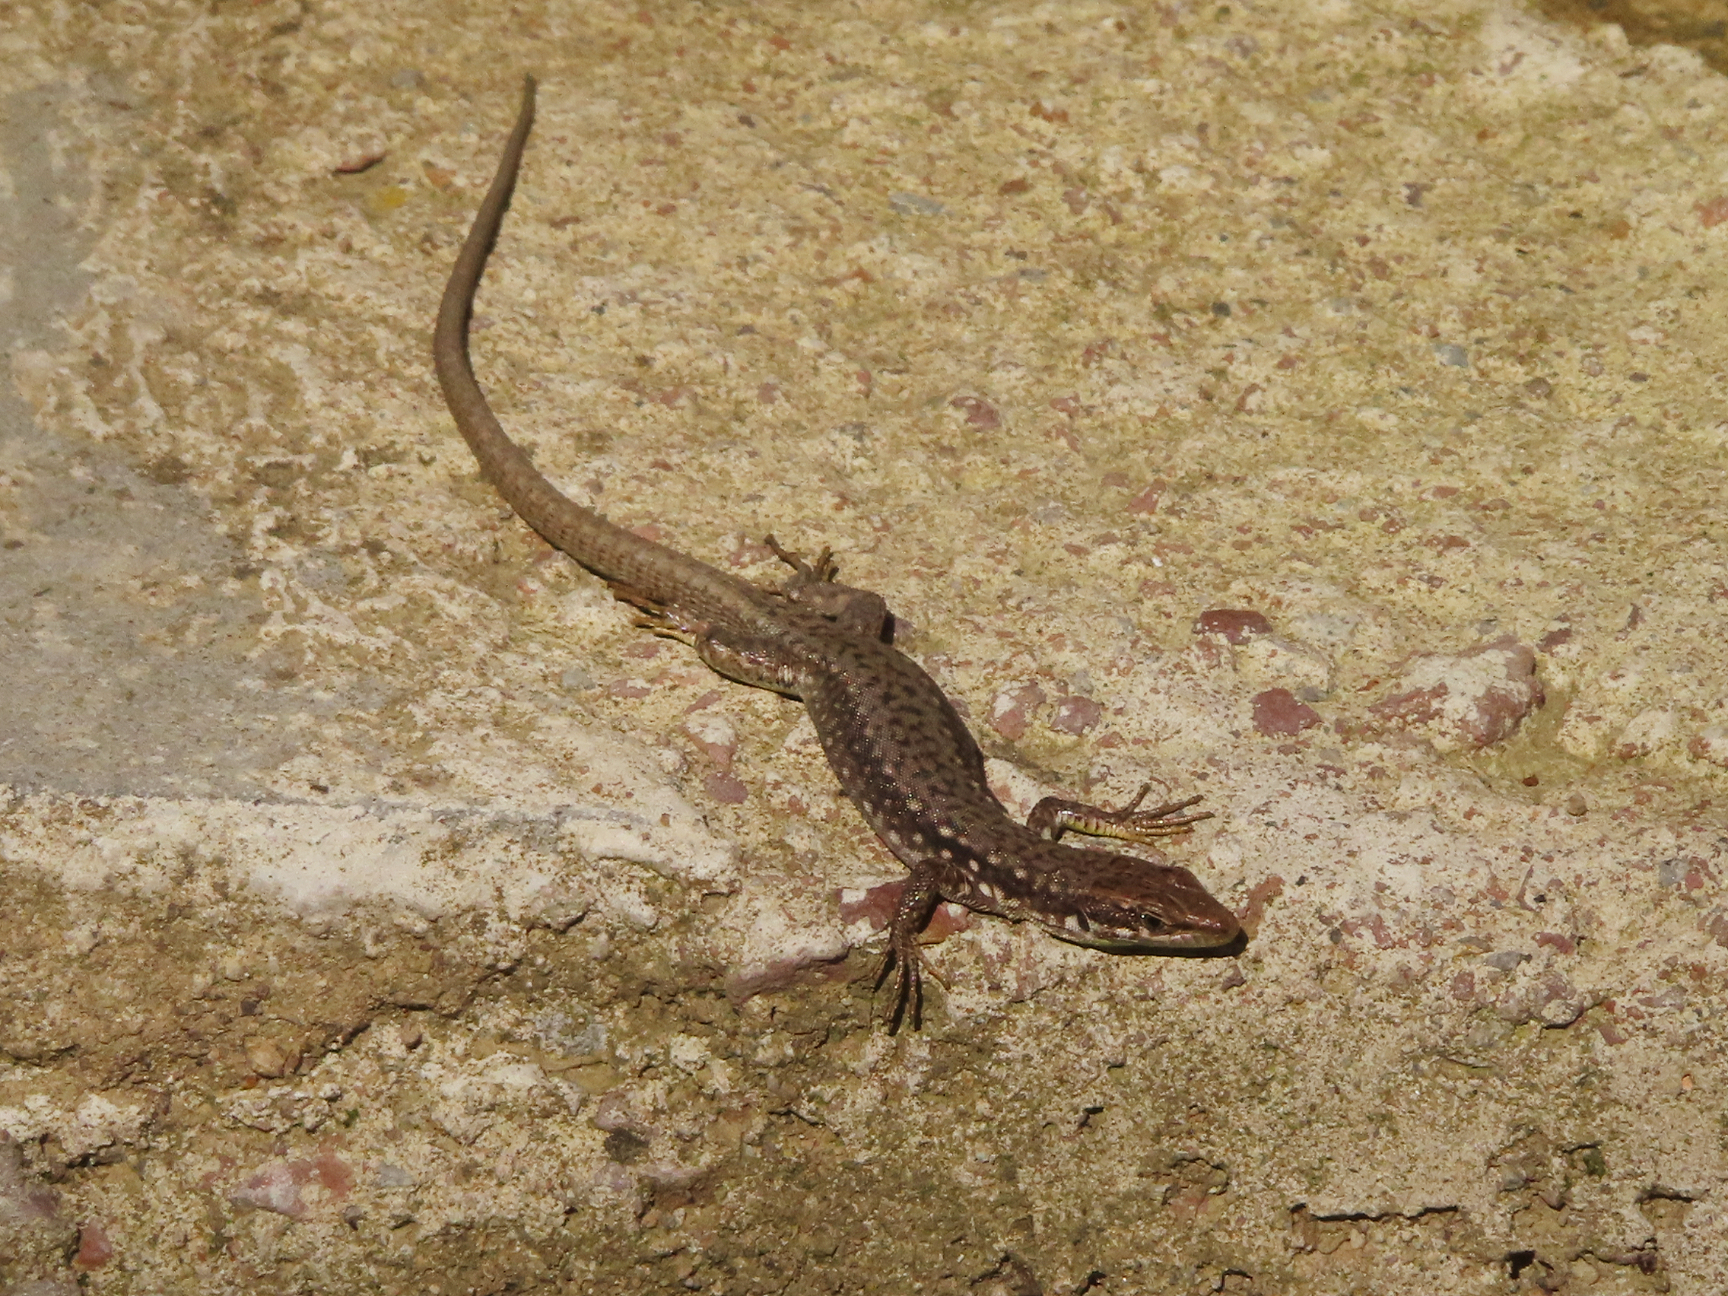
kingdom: Animalia
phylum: Chordata
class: Squamata
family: Lacertidae
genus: Darevskia
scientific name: Darevskia raddei
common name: Radde's lizard
